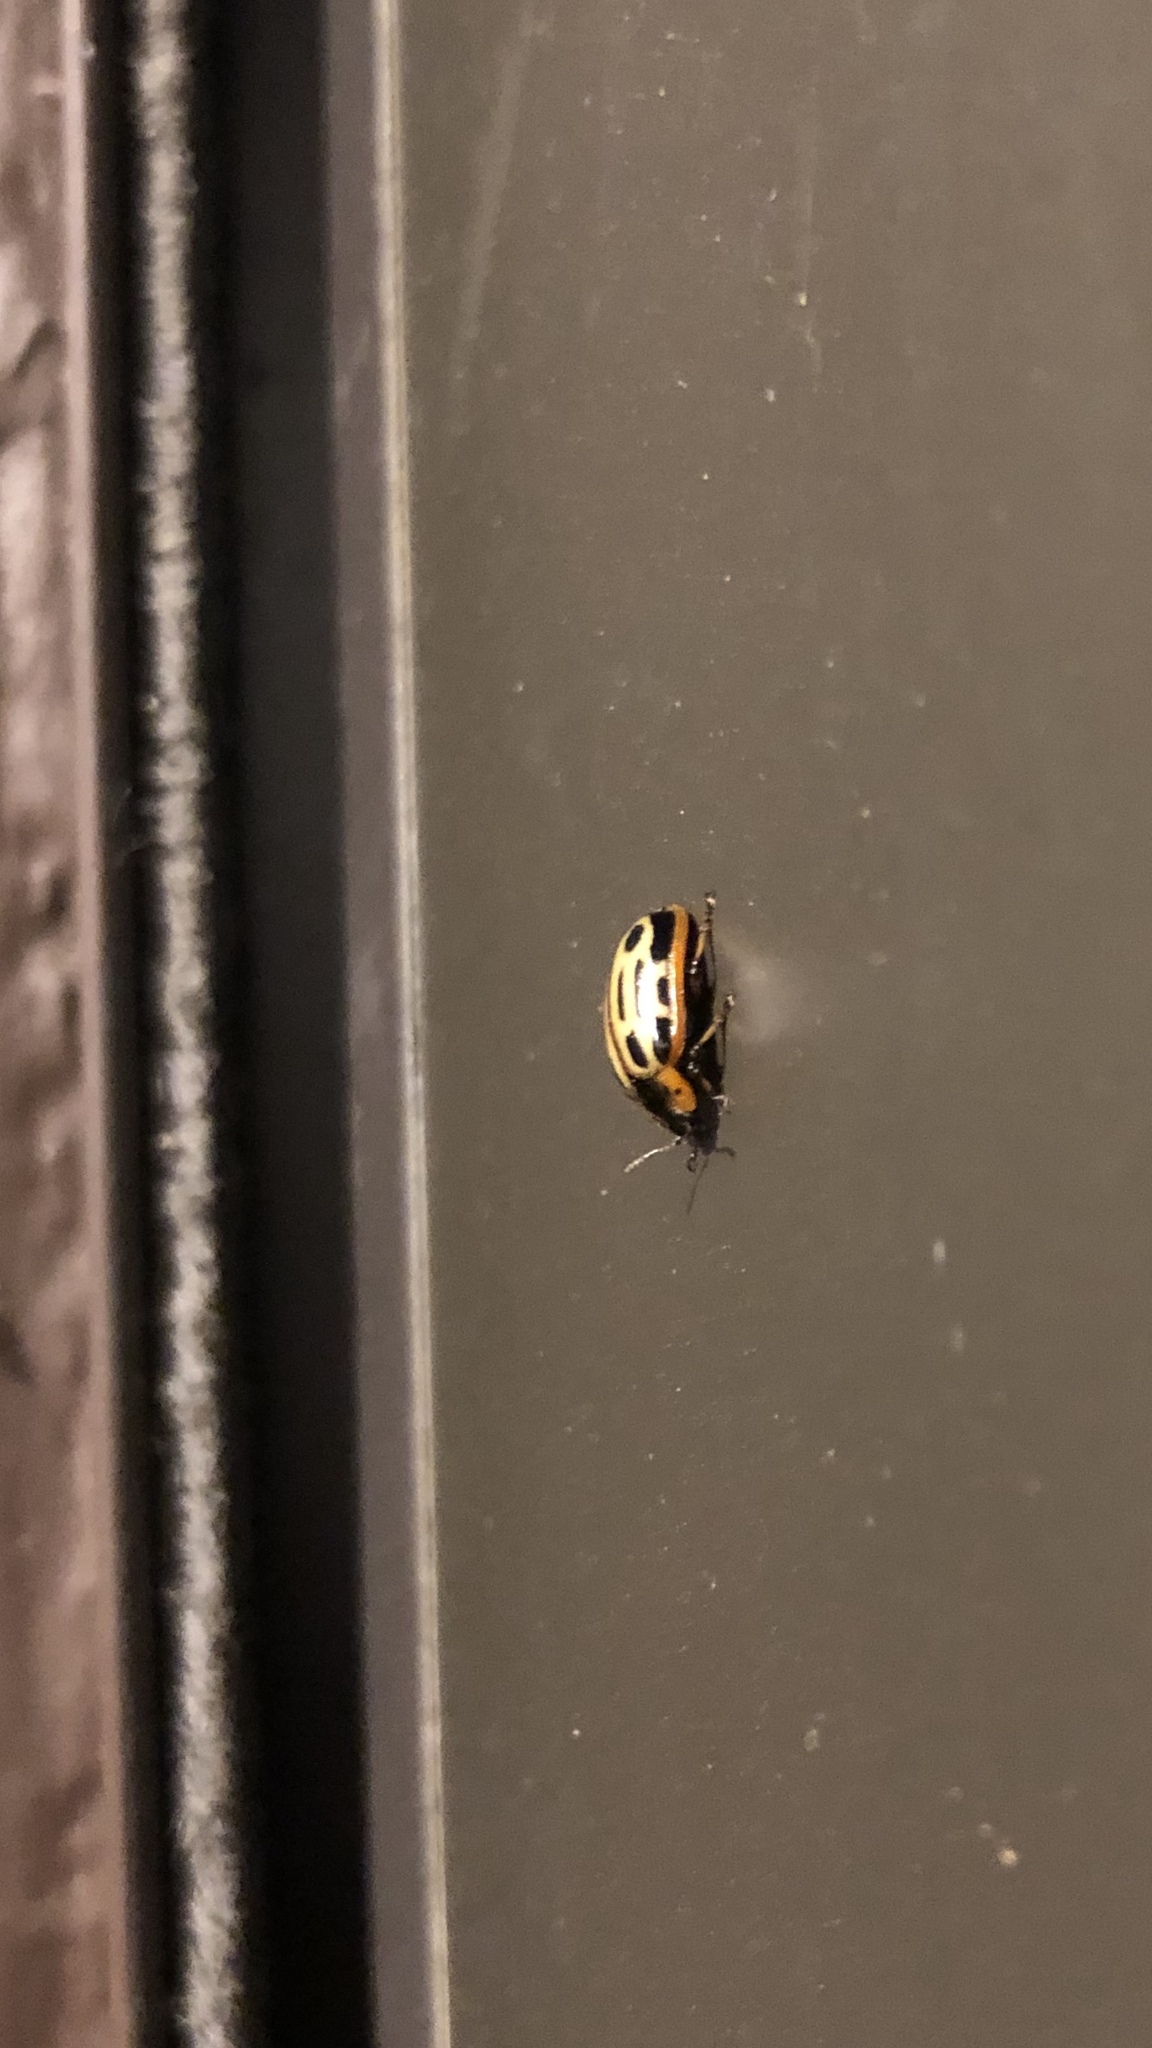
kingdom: Animalia
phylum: Arthropoda
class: Insecta
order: Coleoptera
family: Chrysomelidae
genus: Aethiopocassis
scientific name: Aethiopocassis scripta
